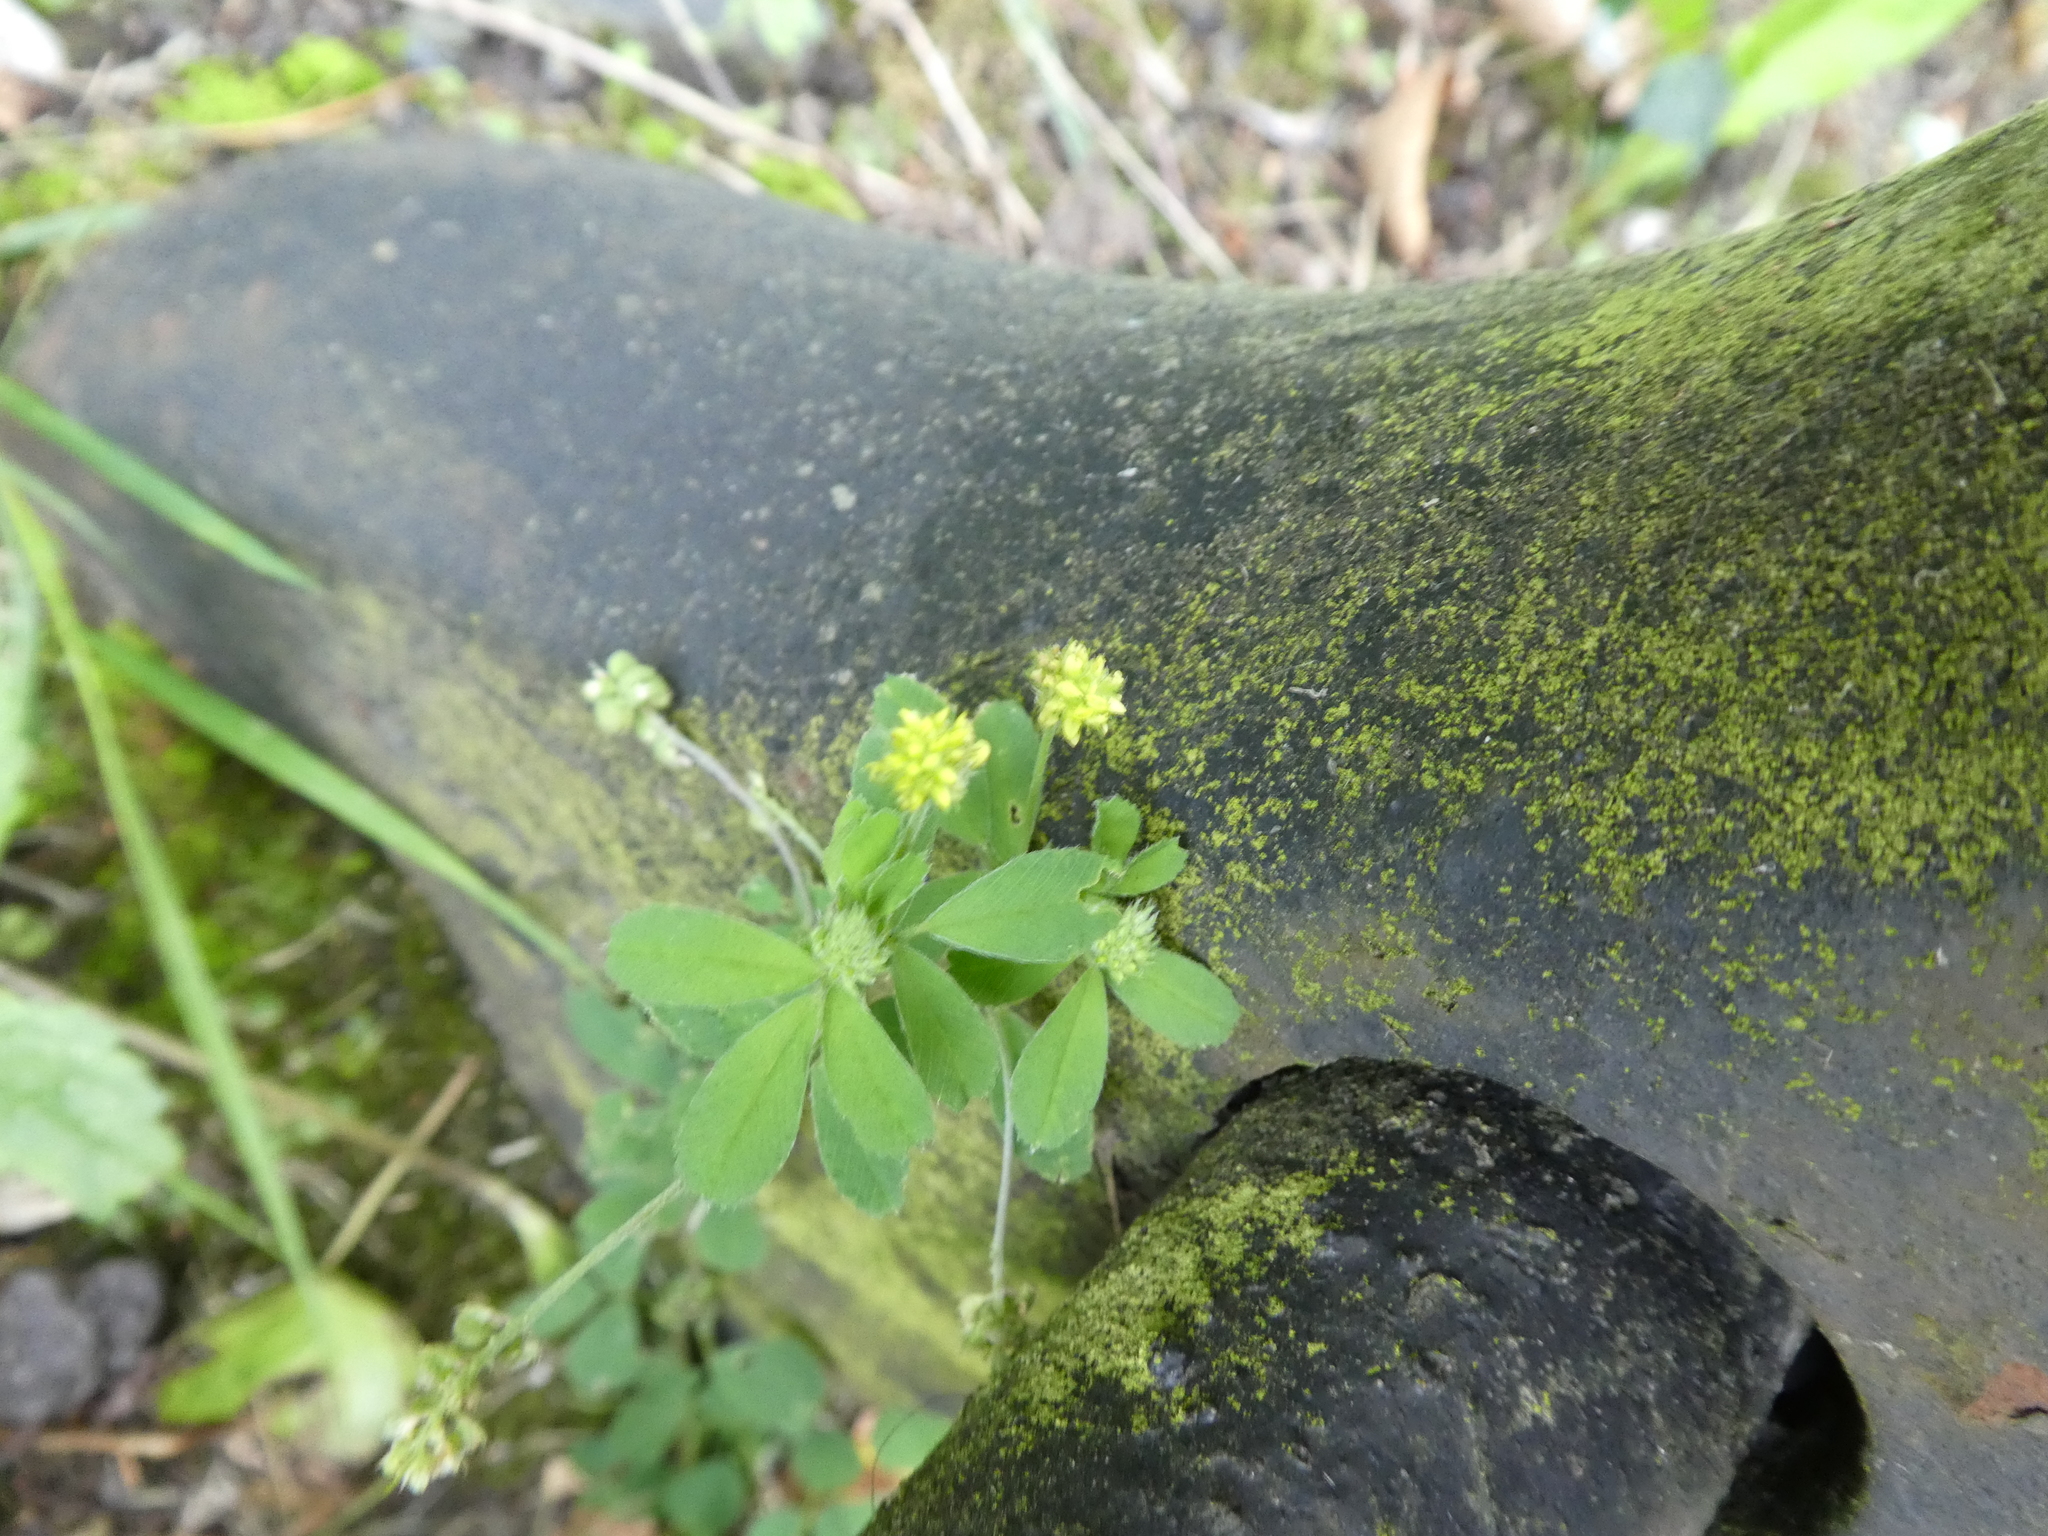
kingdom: Plantae
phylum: Tracheophyta
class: Magnoliopsida
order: Fabales
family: Fabaceae
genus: Medicago
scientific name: Medicago lupulina
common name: Black medick
